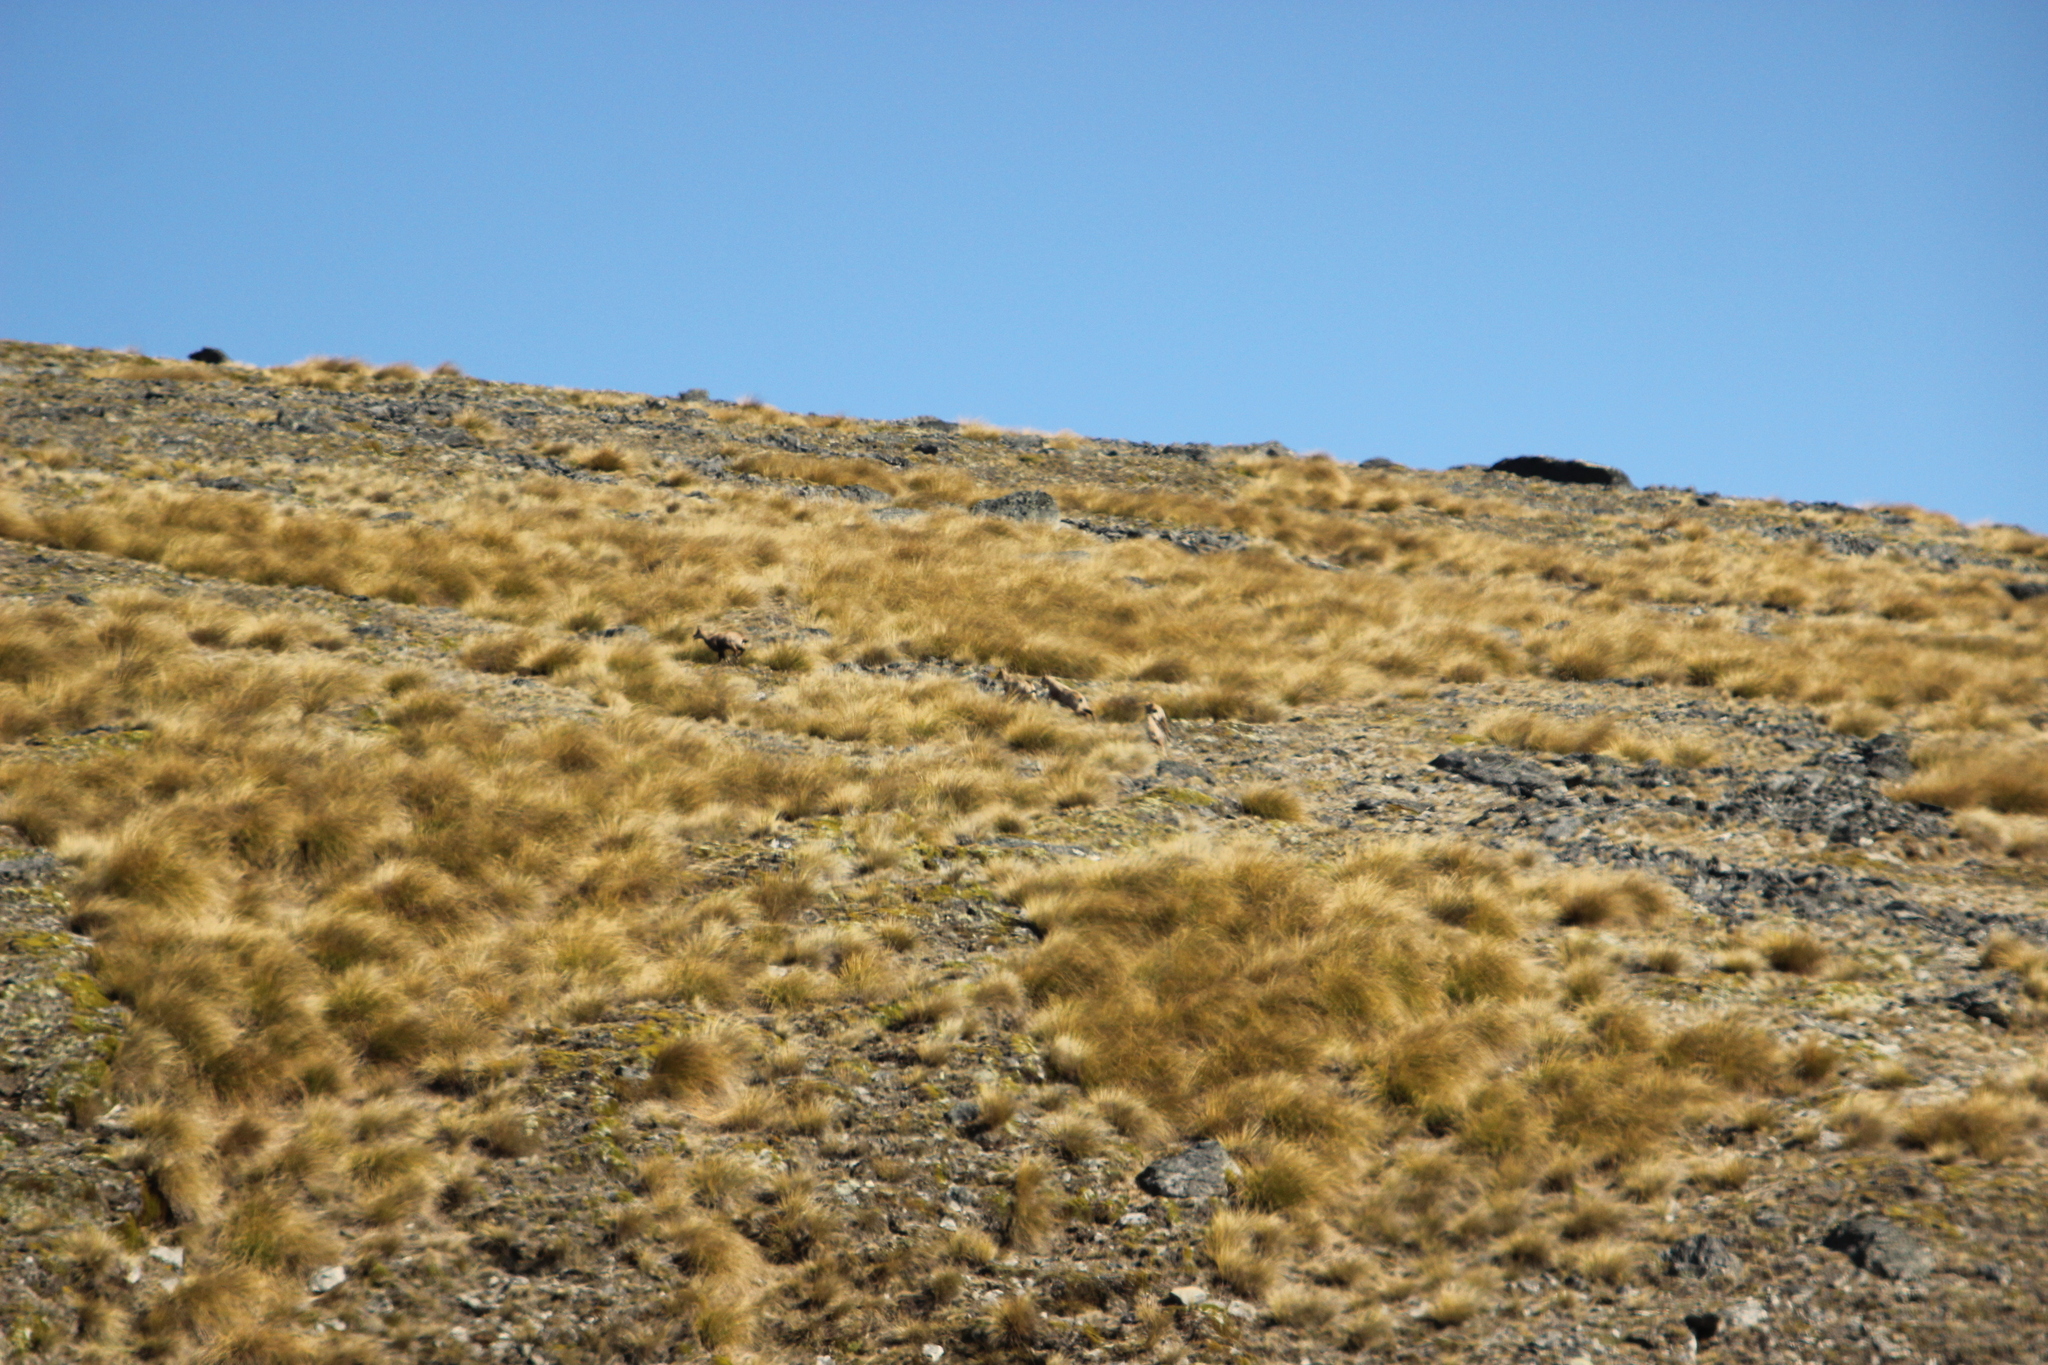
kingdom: Animalia
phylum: Chordata
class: Mammalia
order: Artiodactyla
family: Bovidae
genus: Rupicapra
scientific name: Rupicapra rupicapra
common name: Chamois
